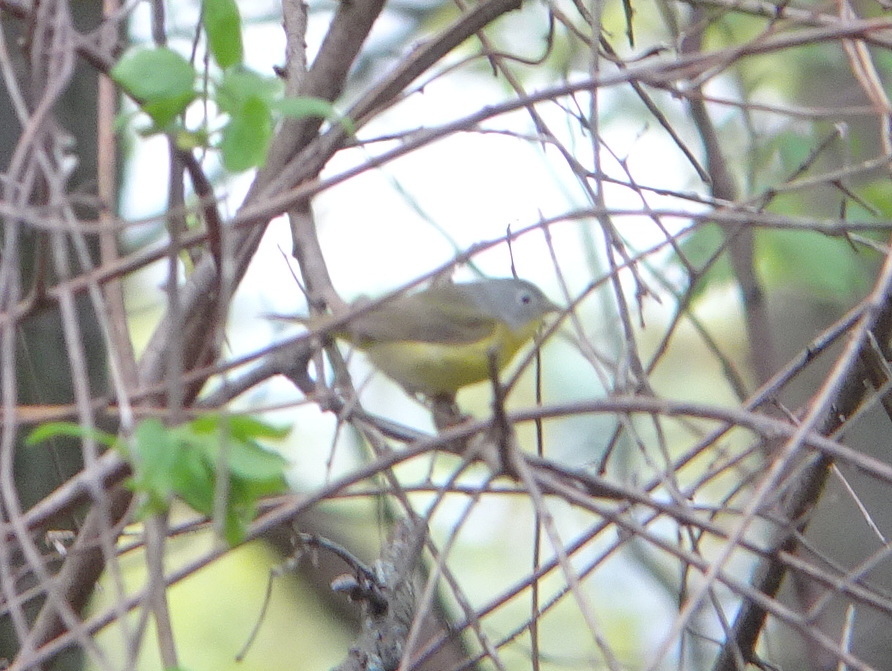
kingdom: Animalia
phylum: Chordata
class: Aves
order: Passeriformes
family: Parulidae
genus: Leiothlypis
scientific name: Leiothlypis ruficapilla
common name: Nashville warbler
